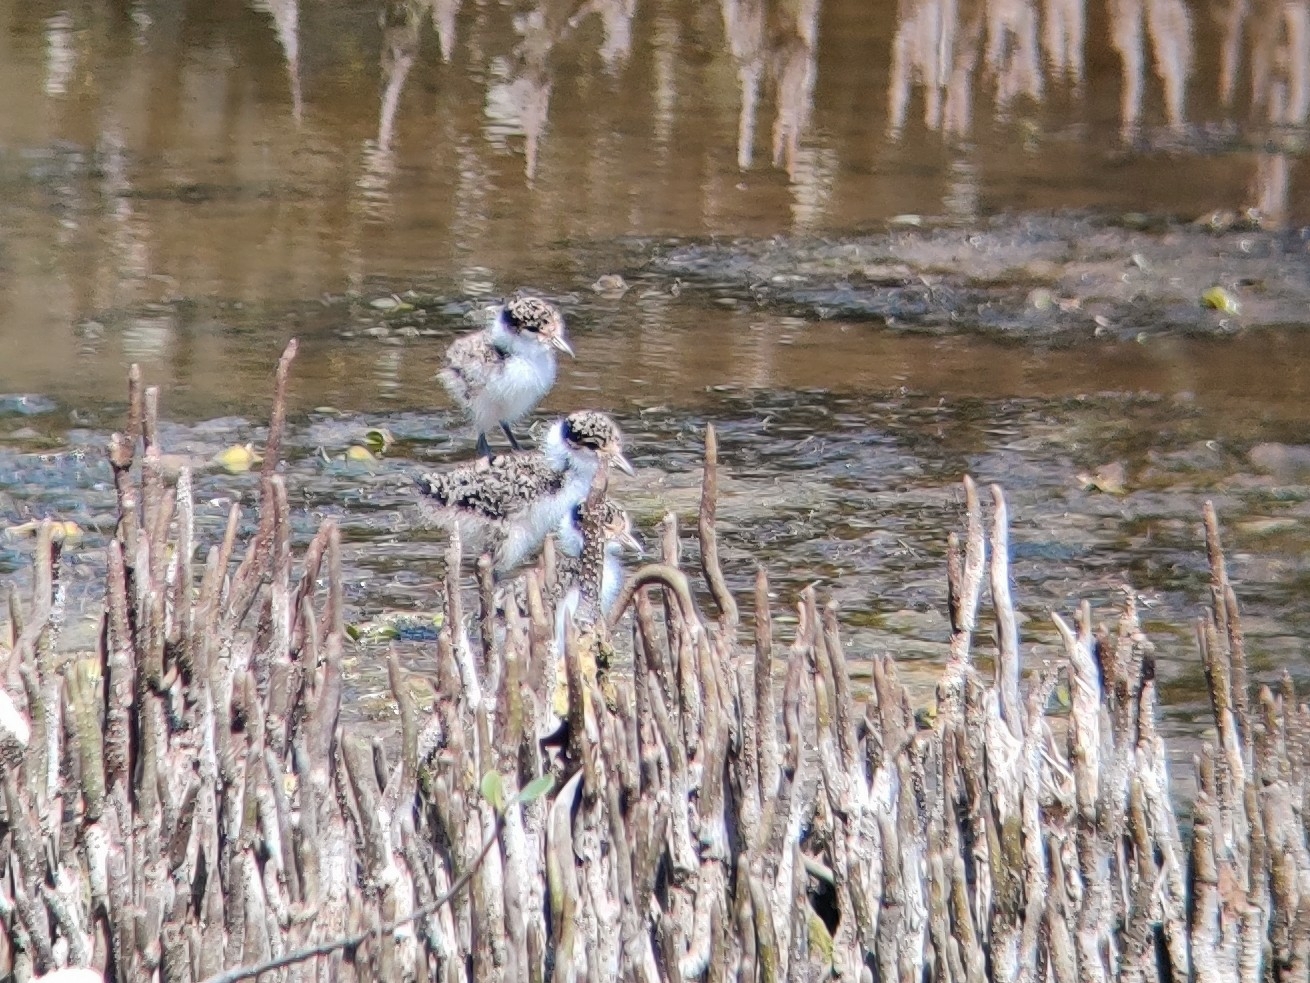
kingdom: Animalia
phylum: Chordata
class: Aves
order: Charadriiformes
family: Charadriidae
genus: Vanellus
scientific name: Vanellus miles
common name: Masked lapwing
